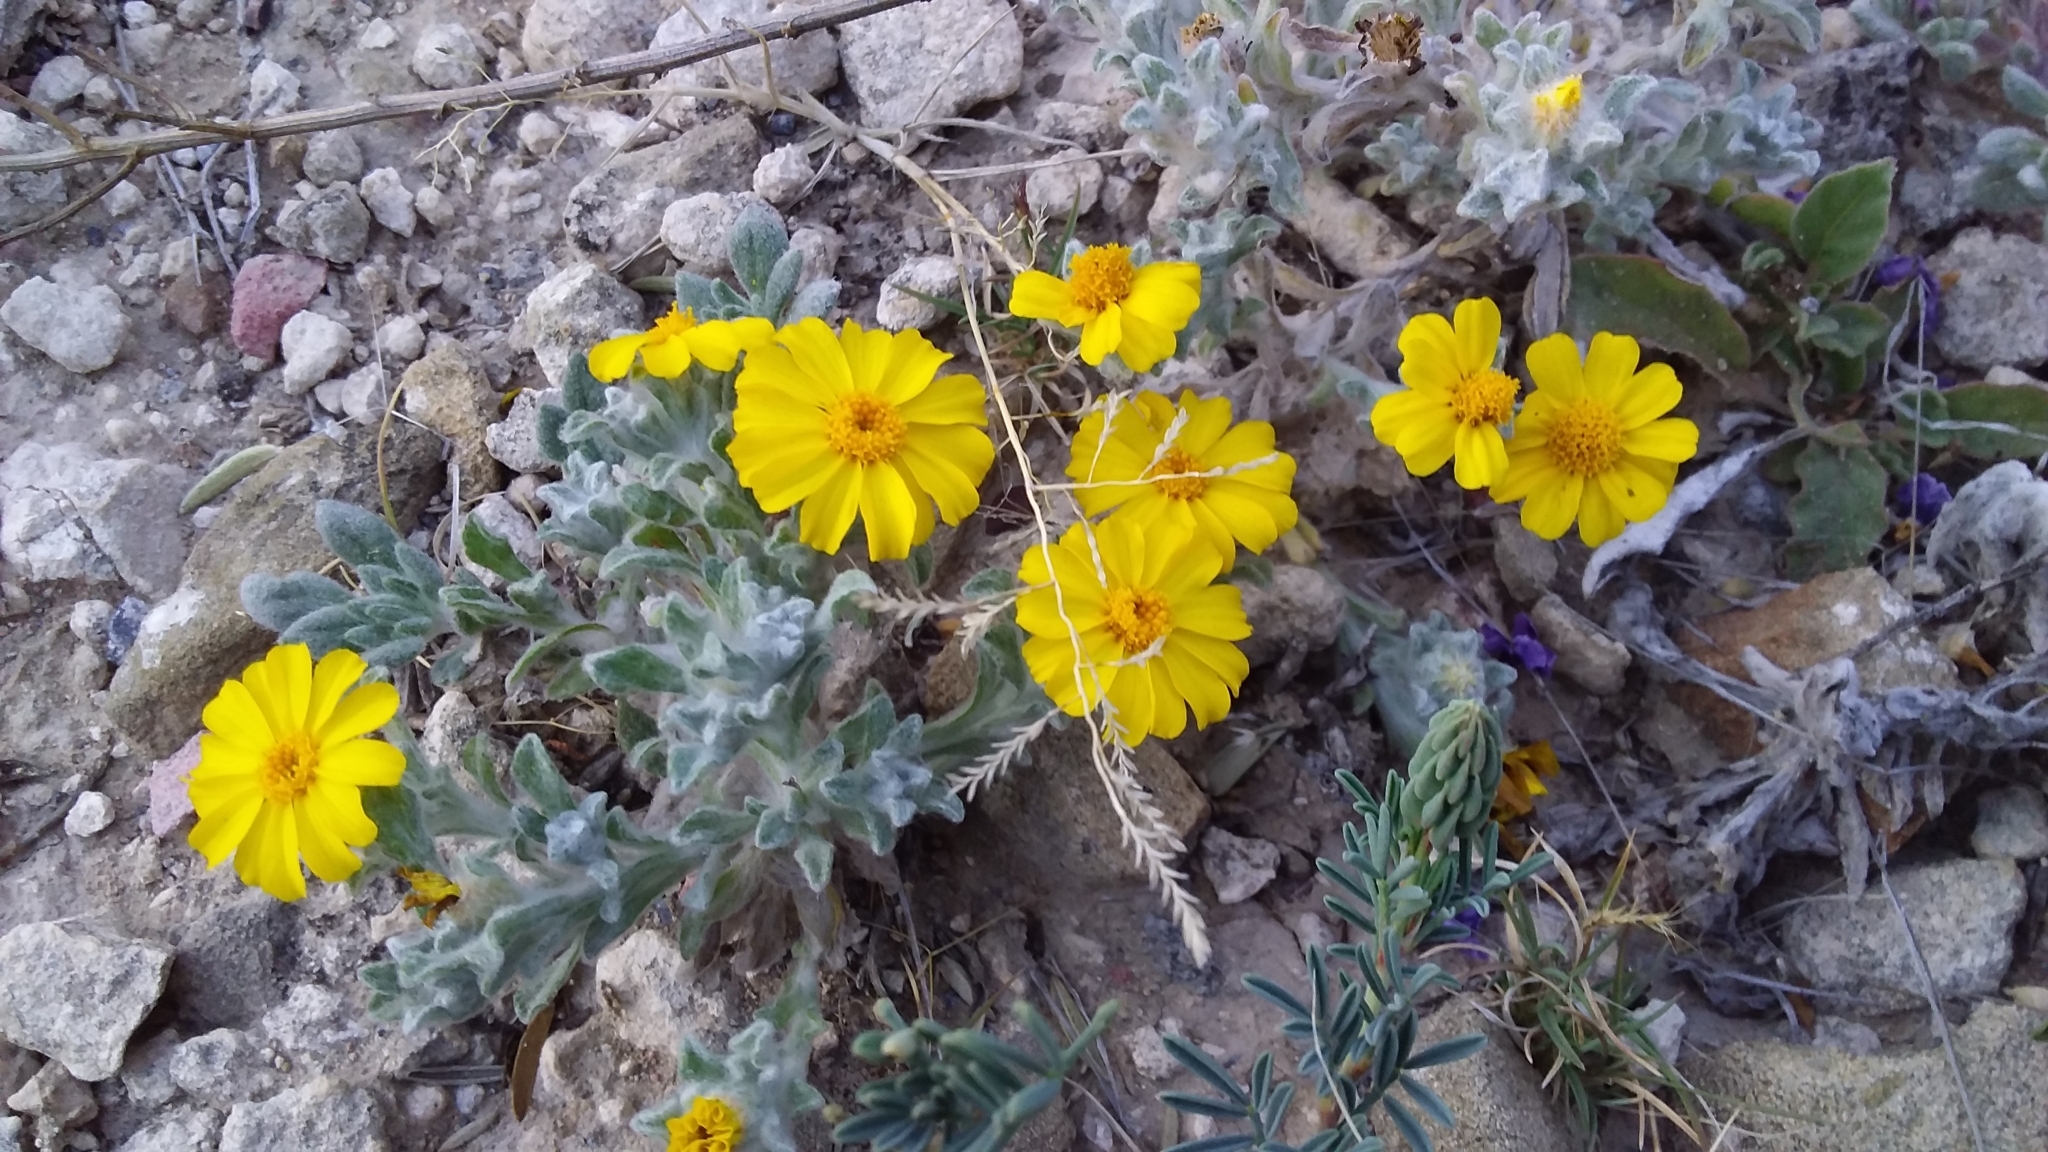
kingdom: Plantae
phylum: Tracheophyta
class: Magnoliopsida
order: Asterales
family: Asteraceae
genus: Thymophylla
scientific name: Thymophylla micropoides
